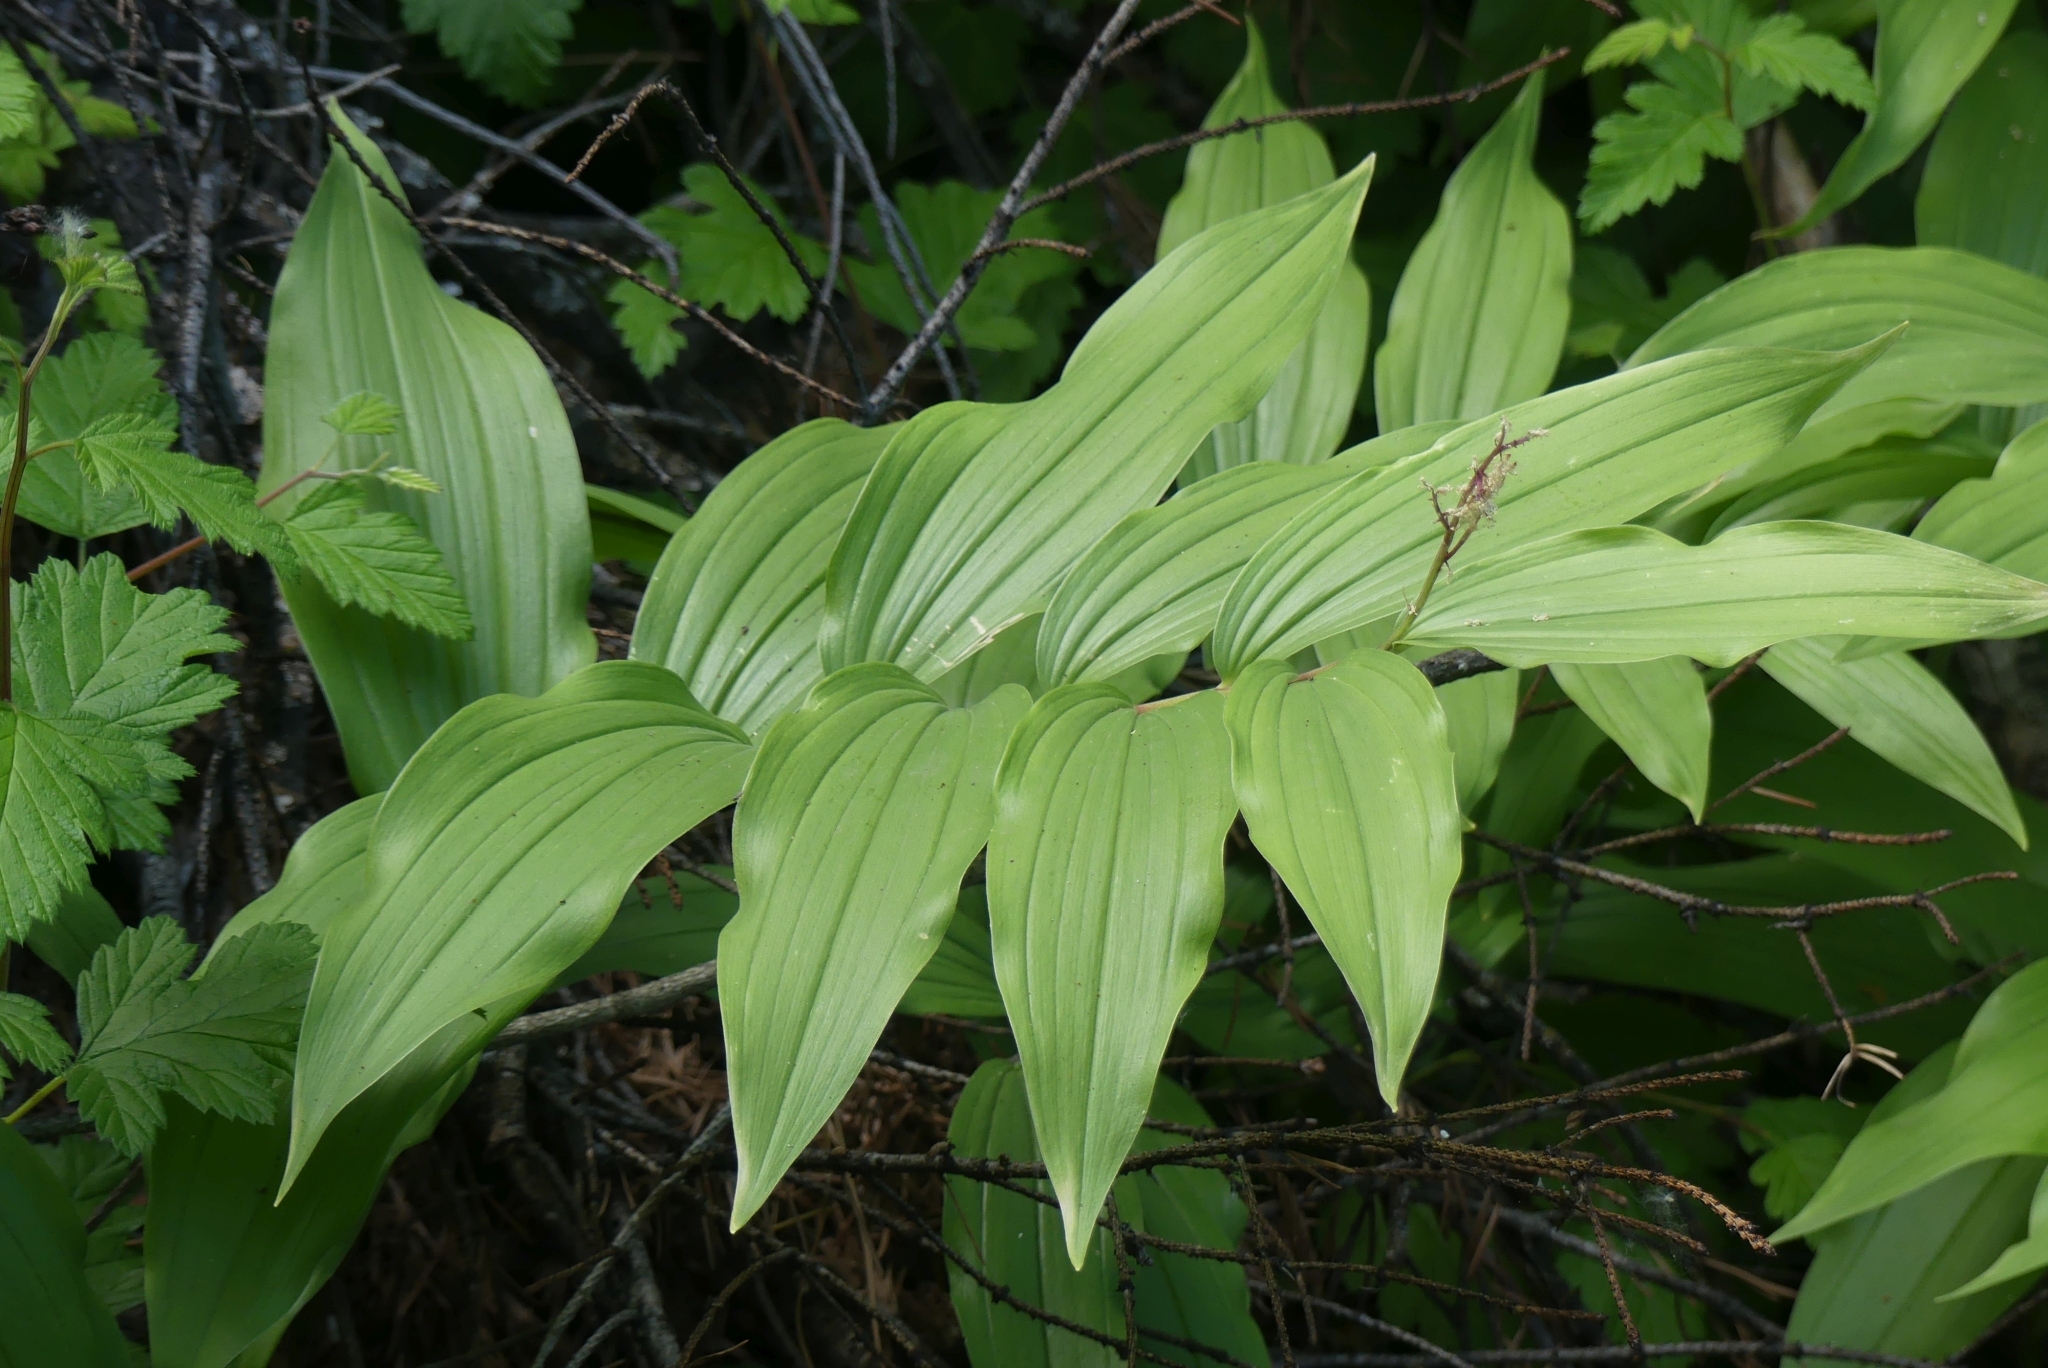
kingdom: Plantae
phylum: Tracheophyta
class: Liliopsida
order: Asparagales
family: Asparagaceae
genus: Maianthemum
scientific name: Maianthemum racemosum
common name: False spikenard
